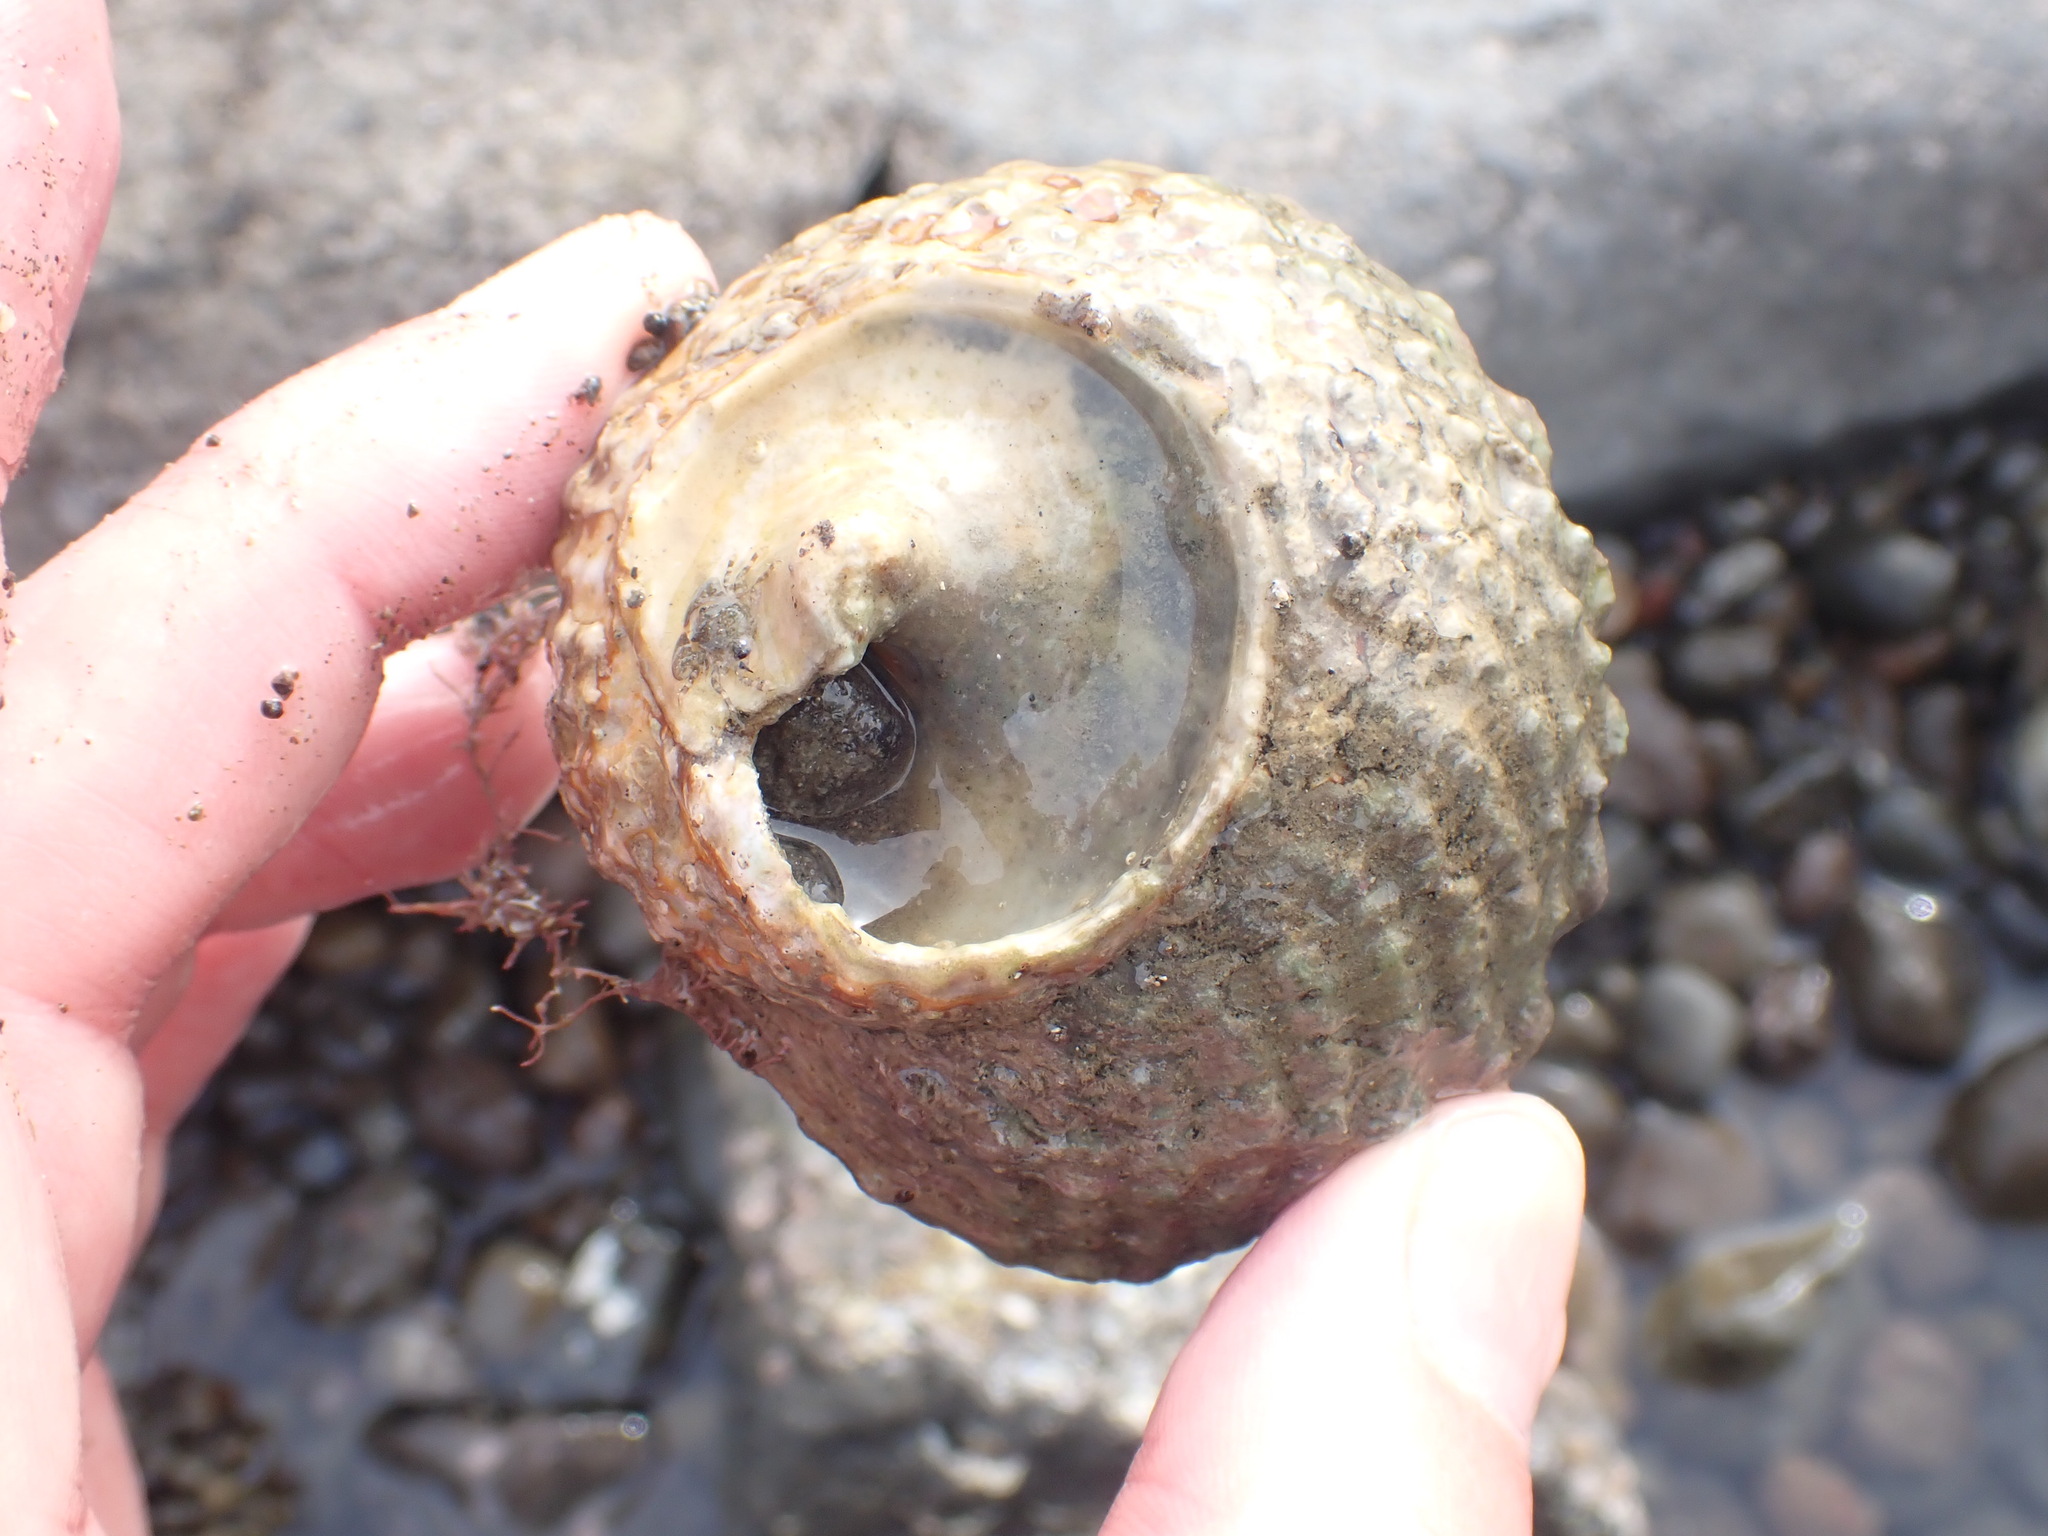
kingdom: Animalia
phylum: Mollusca
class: Gastropoda
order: Trochida
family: Turbinidae
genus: Cookia
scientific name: Cookia sulcata
